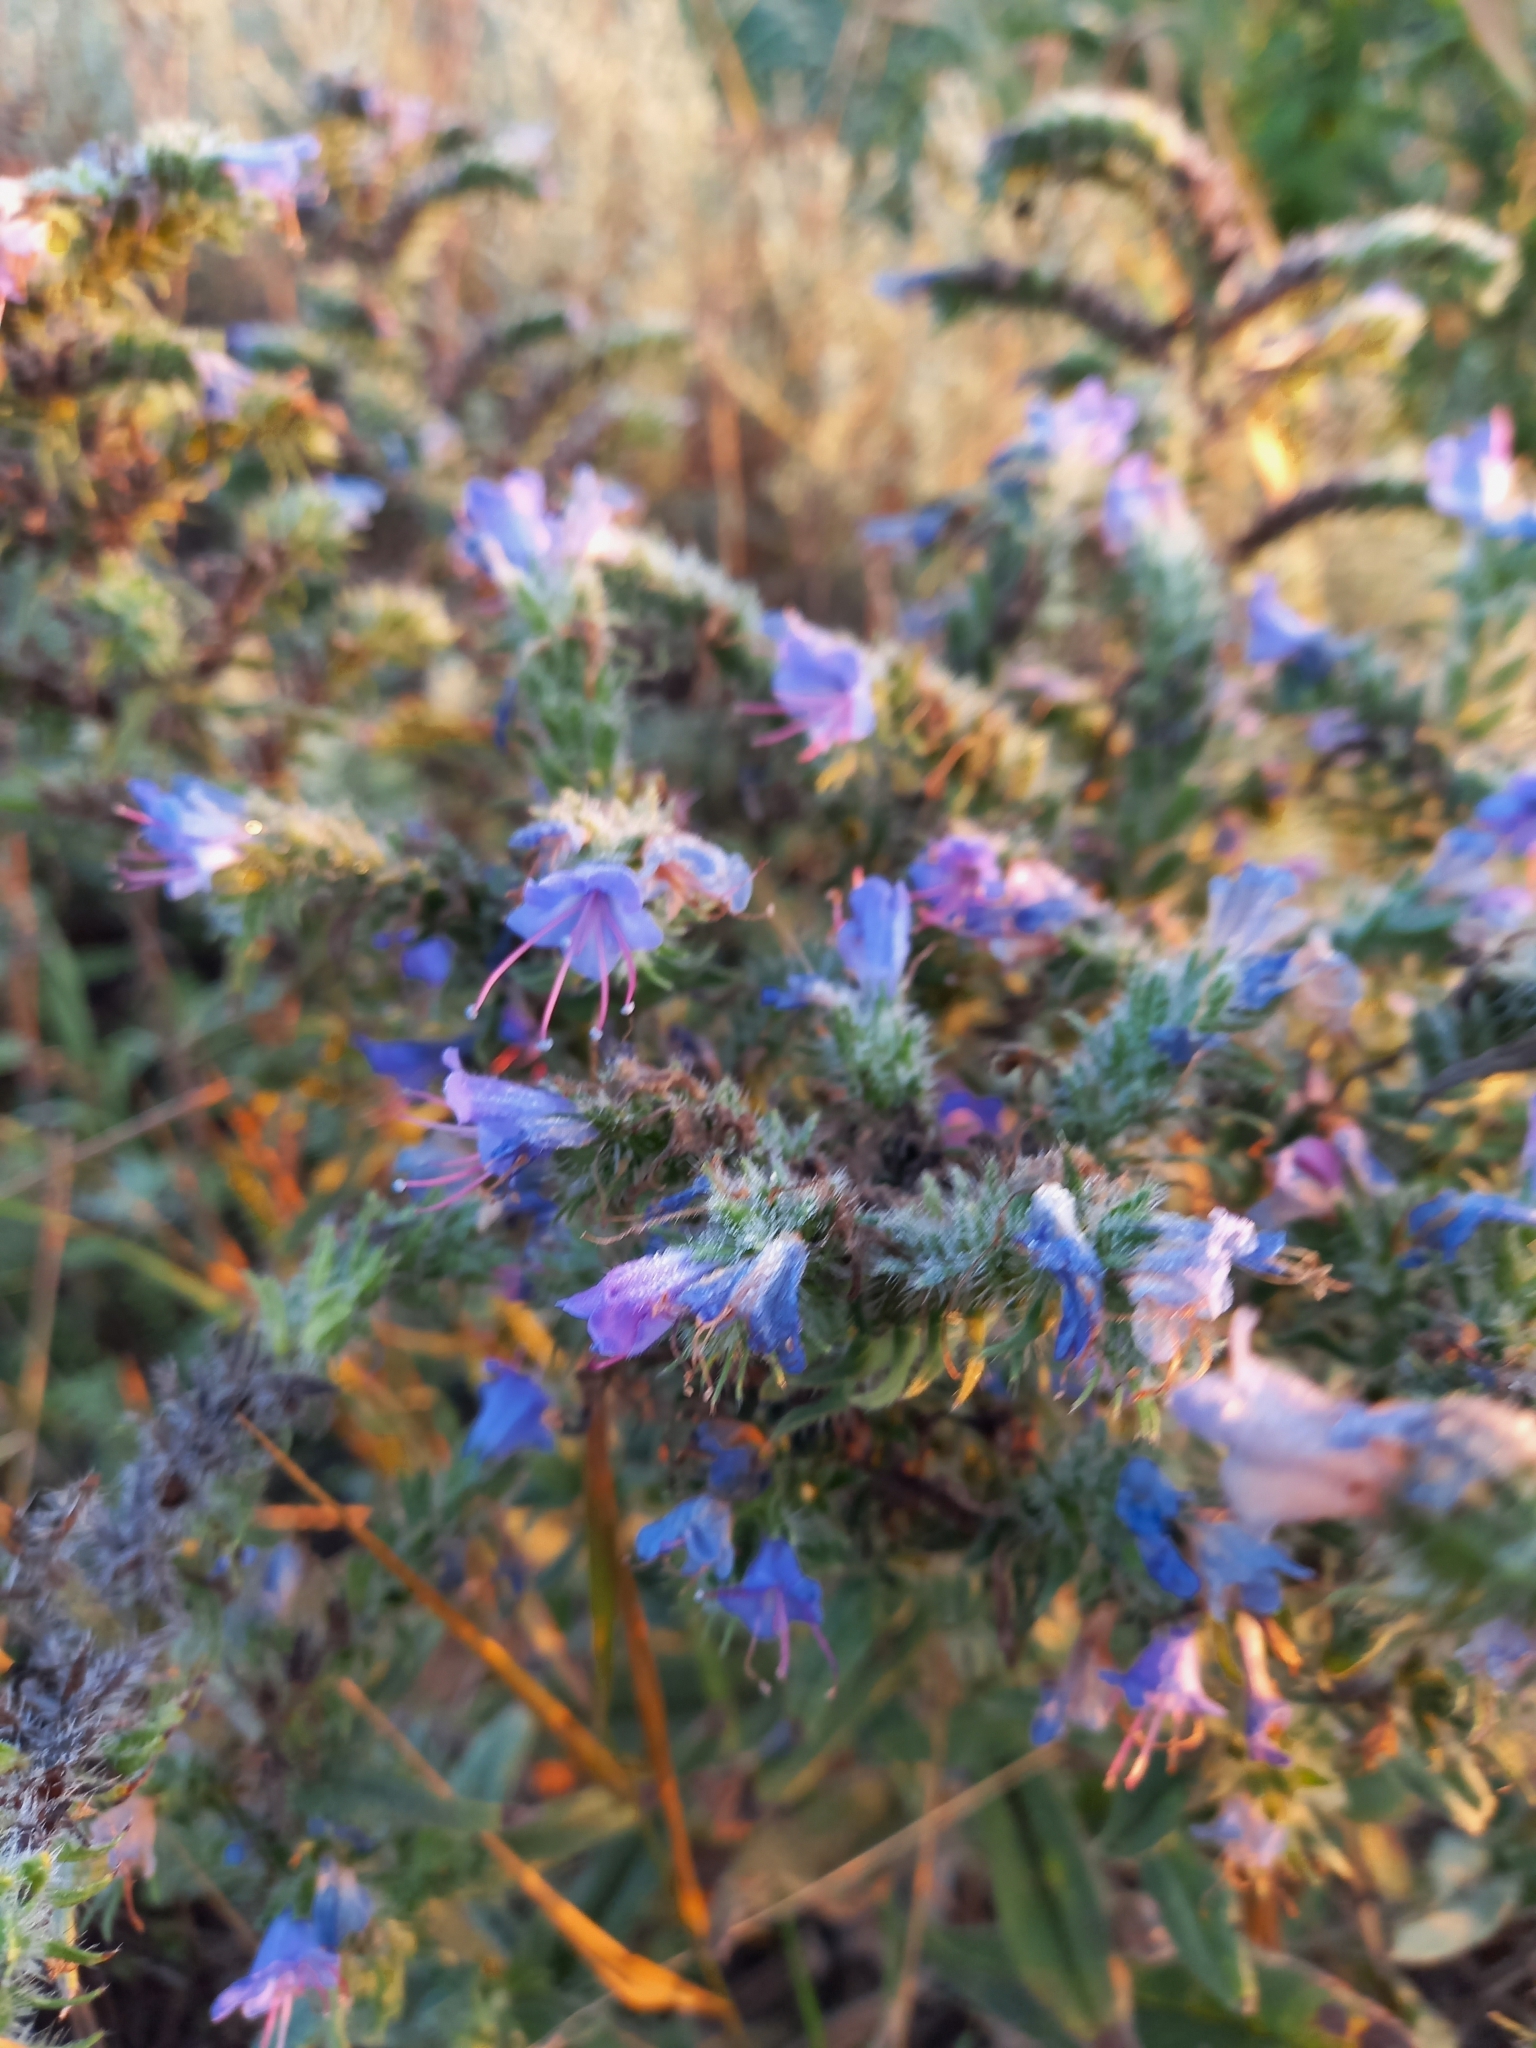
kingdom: Plantae
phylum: Tracheophyta
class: Magnoliopsida
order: Boraginales
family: Boraginaceae
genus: Echium
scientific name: Echium vulgare
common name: Common viper's bugloss
